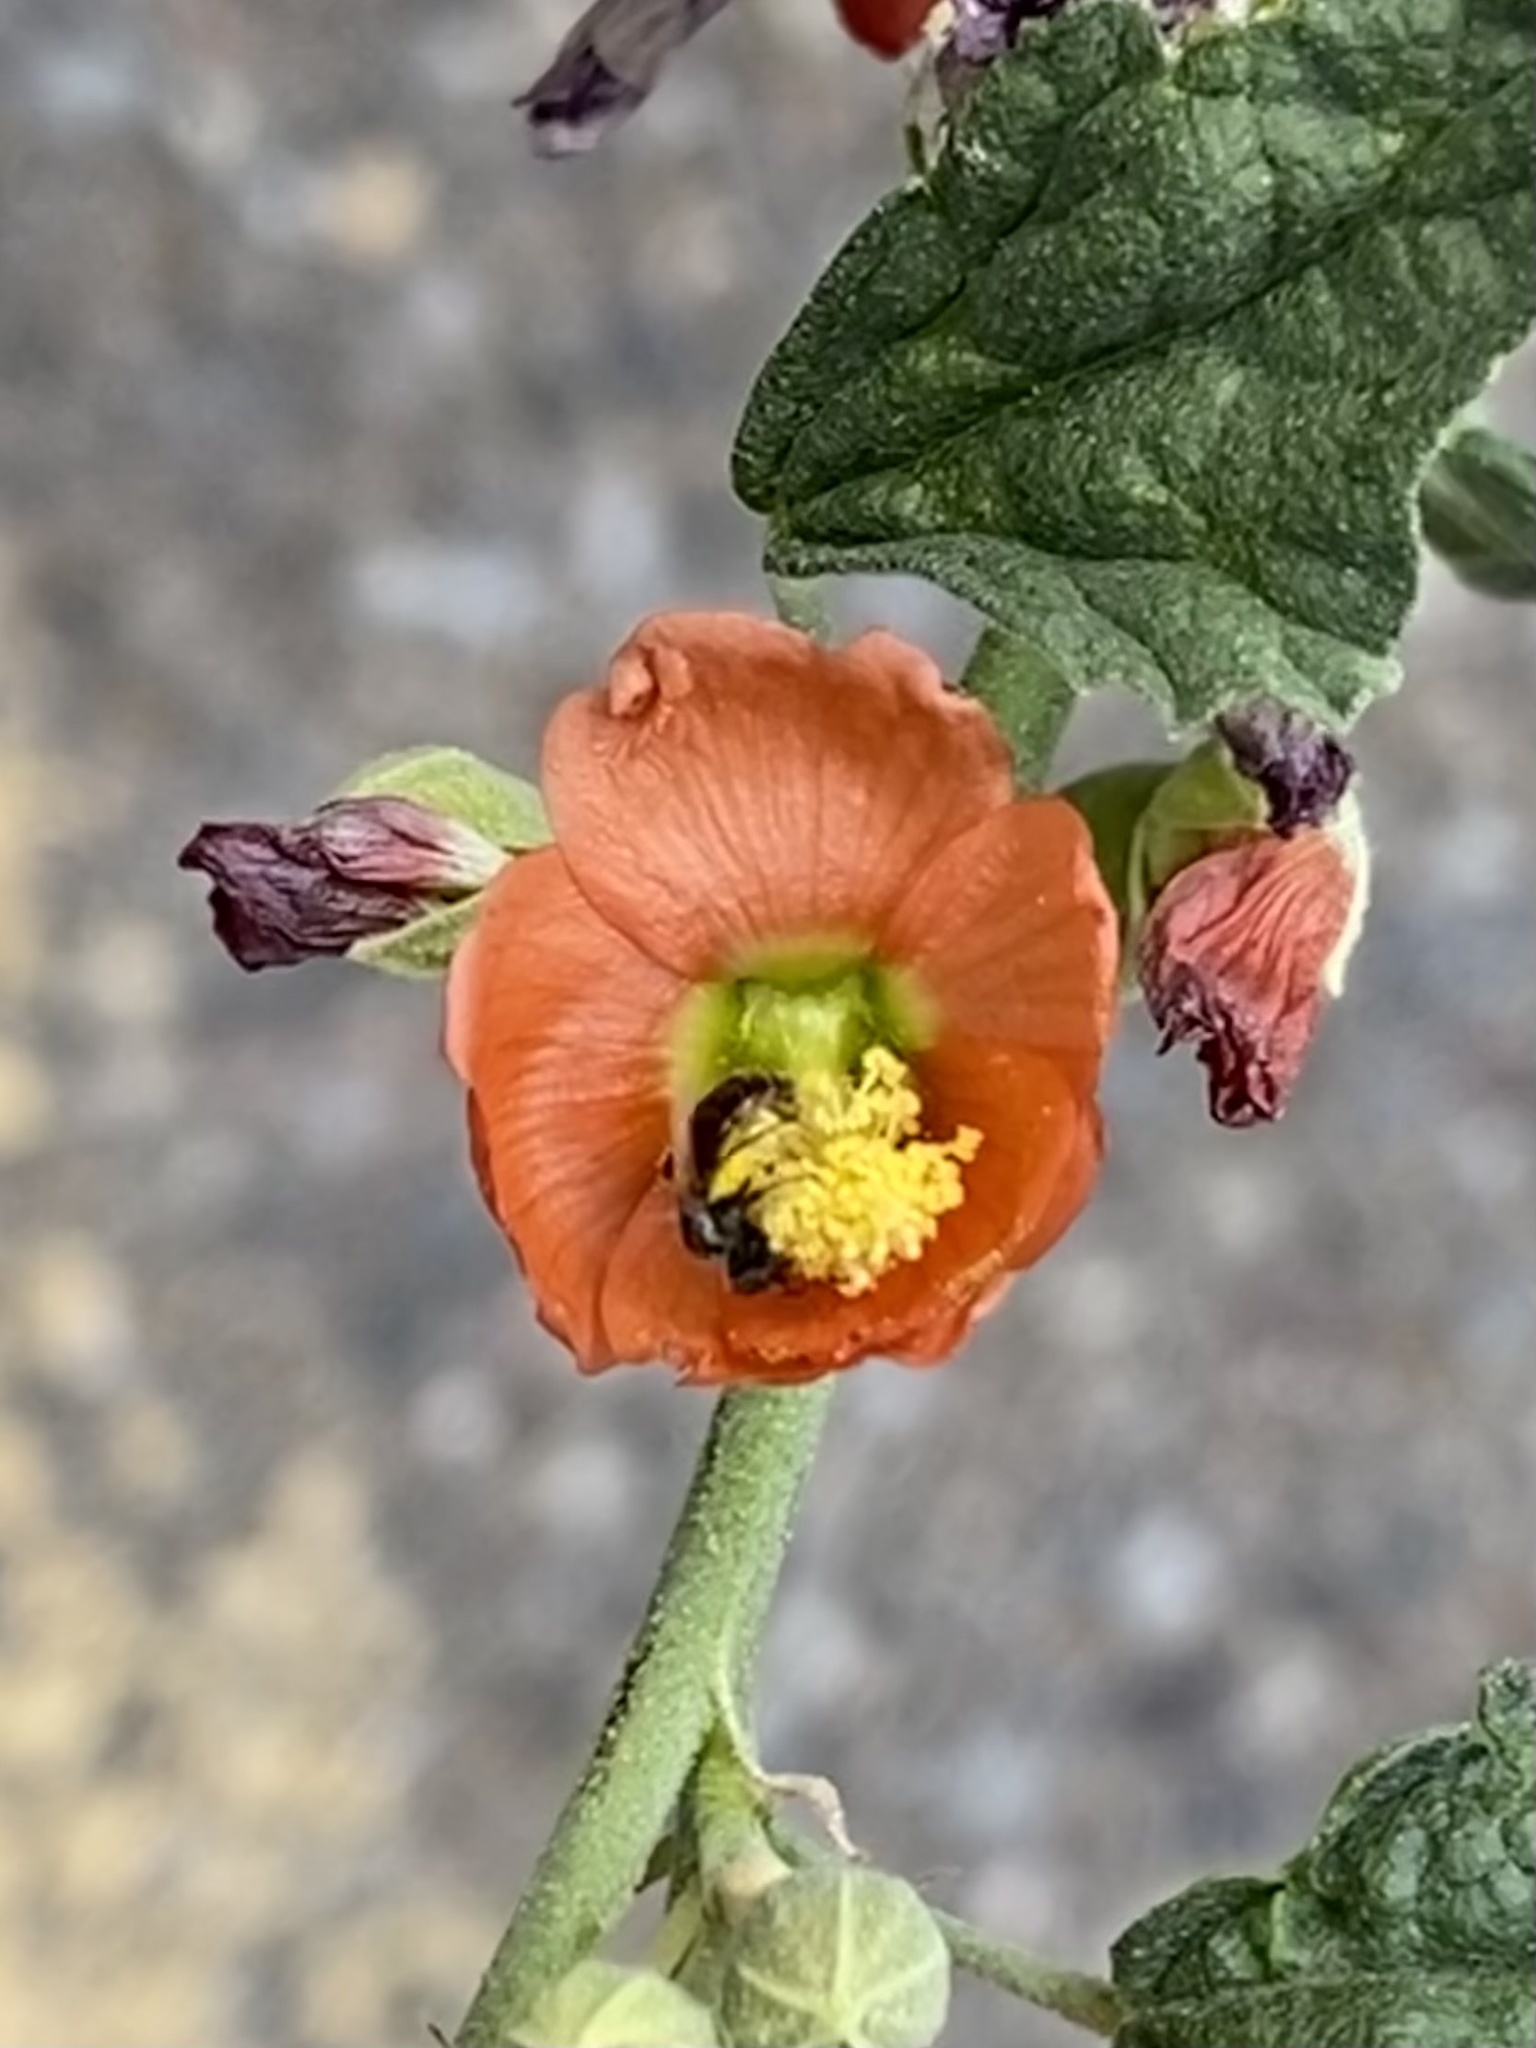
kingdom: Animalia
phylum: Arthropoda
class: Insecta
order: Hymenoptera
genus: Macroteropsis
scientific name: Macroteropsis
